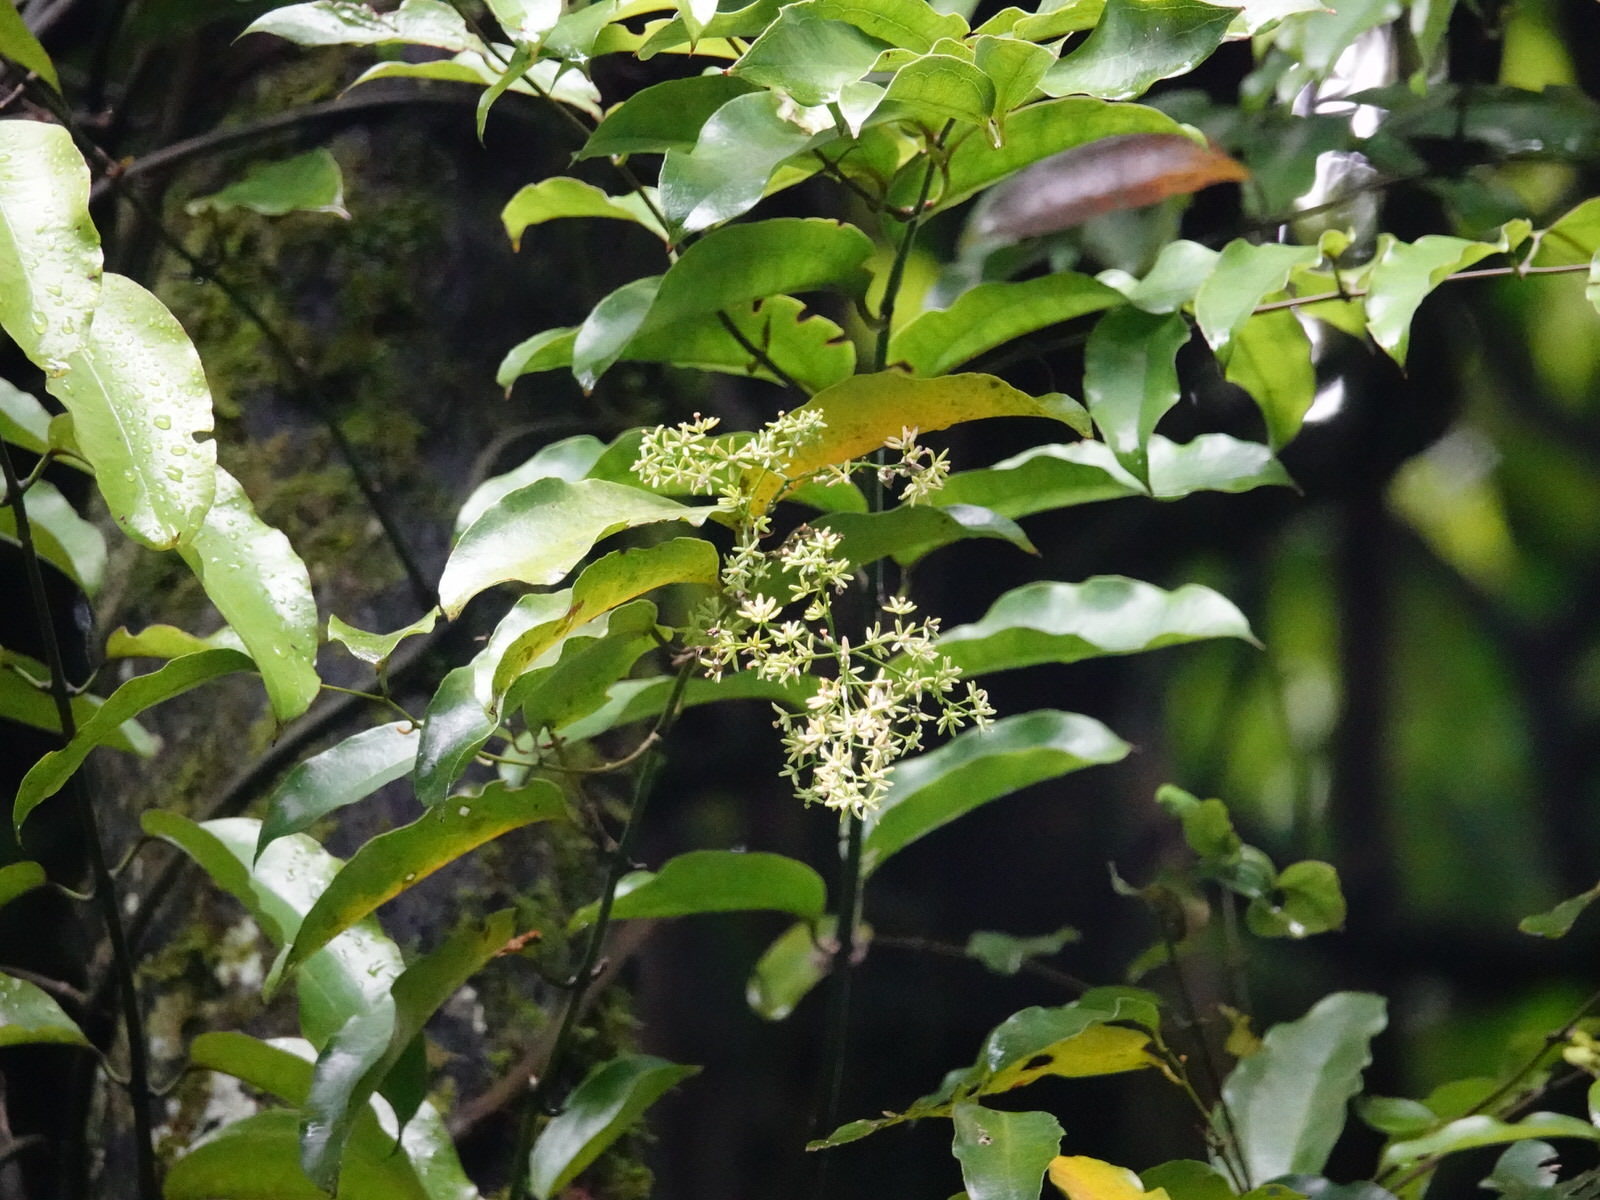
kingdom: Plantae
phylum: Tracheophyta
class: Liliopsida
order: Liliales
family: Ripogonaceae
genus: Ripogonum
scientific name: Ripogonum scandens
